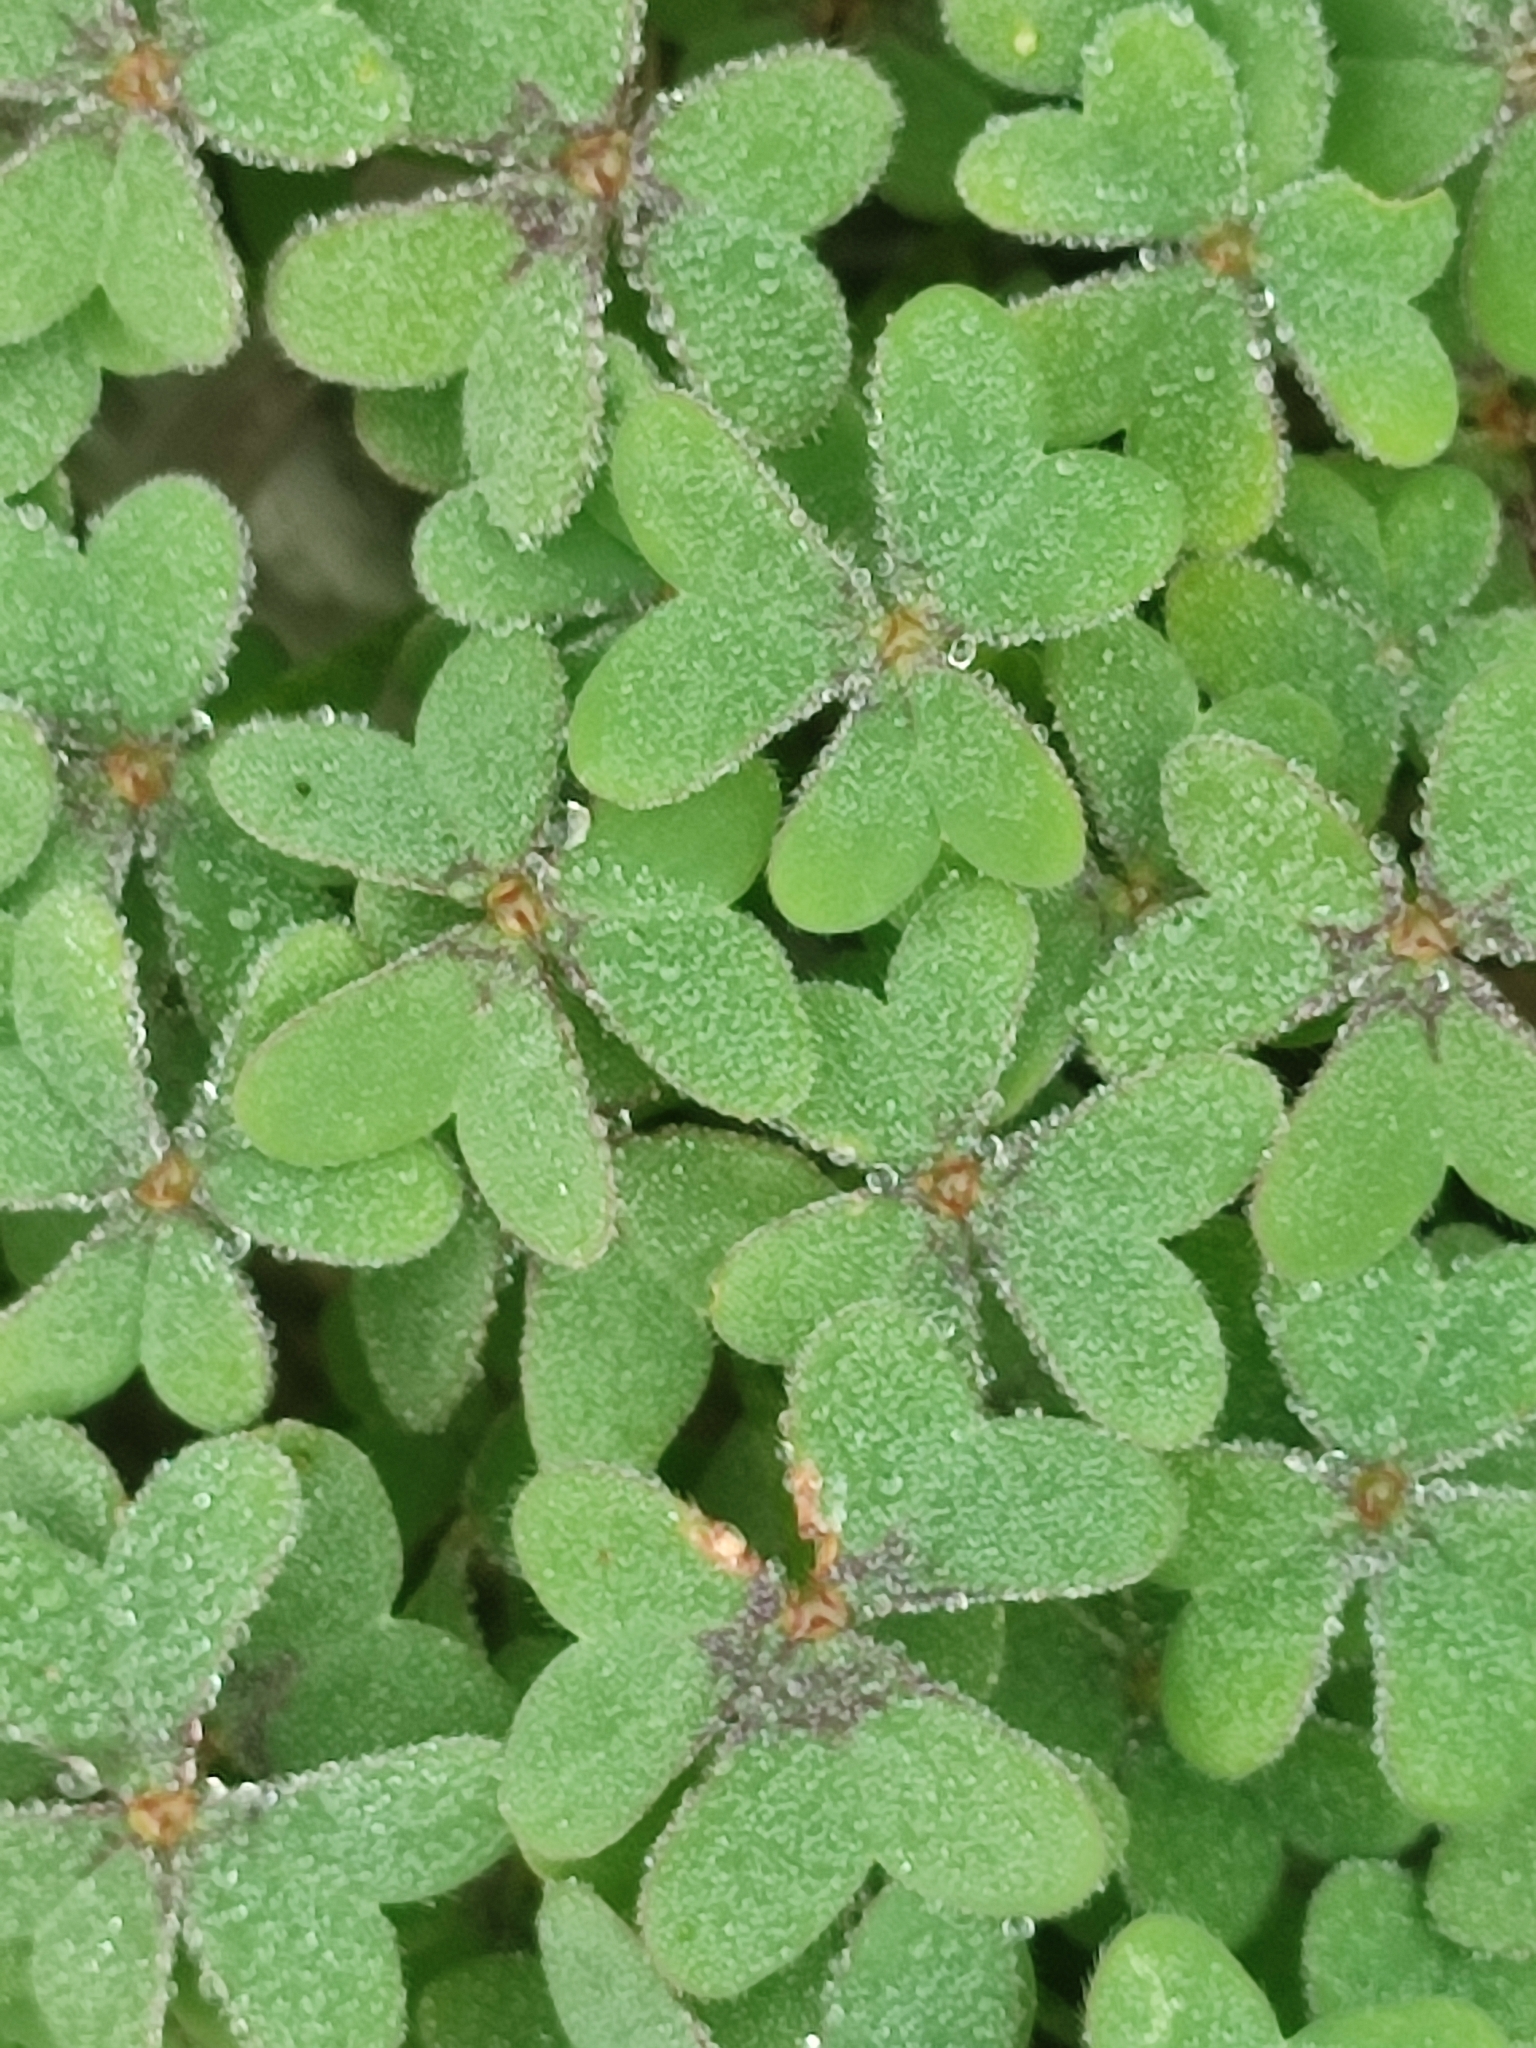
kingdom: Plantae
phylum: Tracheophyta
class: Magnoliopsida
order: Oxalidales
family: Oxalidaceae
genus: Oxalis
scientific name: Oxalis pes-caprae
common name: Bermuda-buttercup
